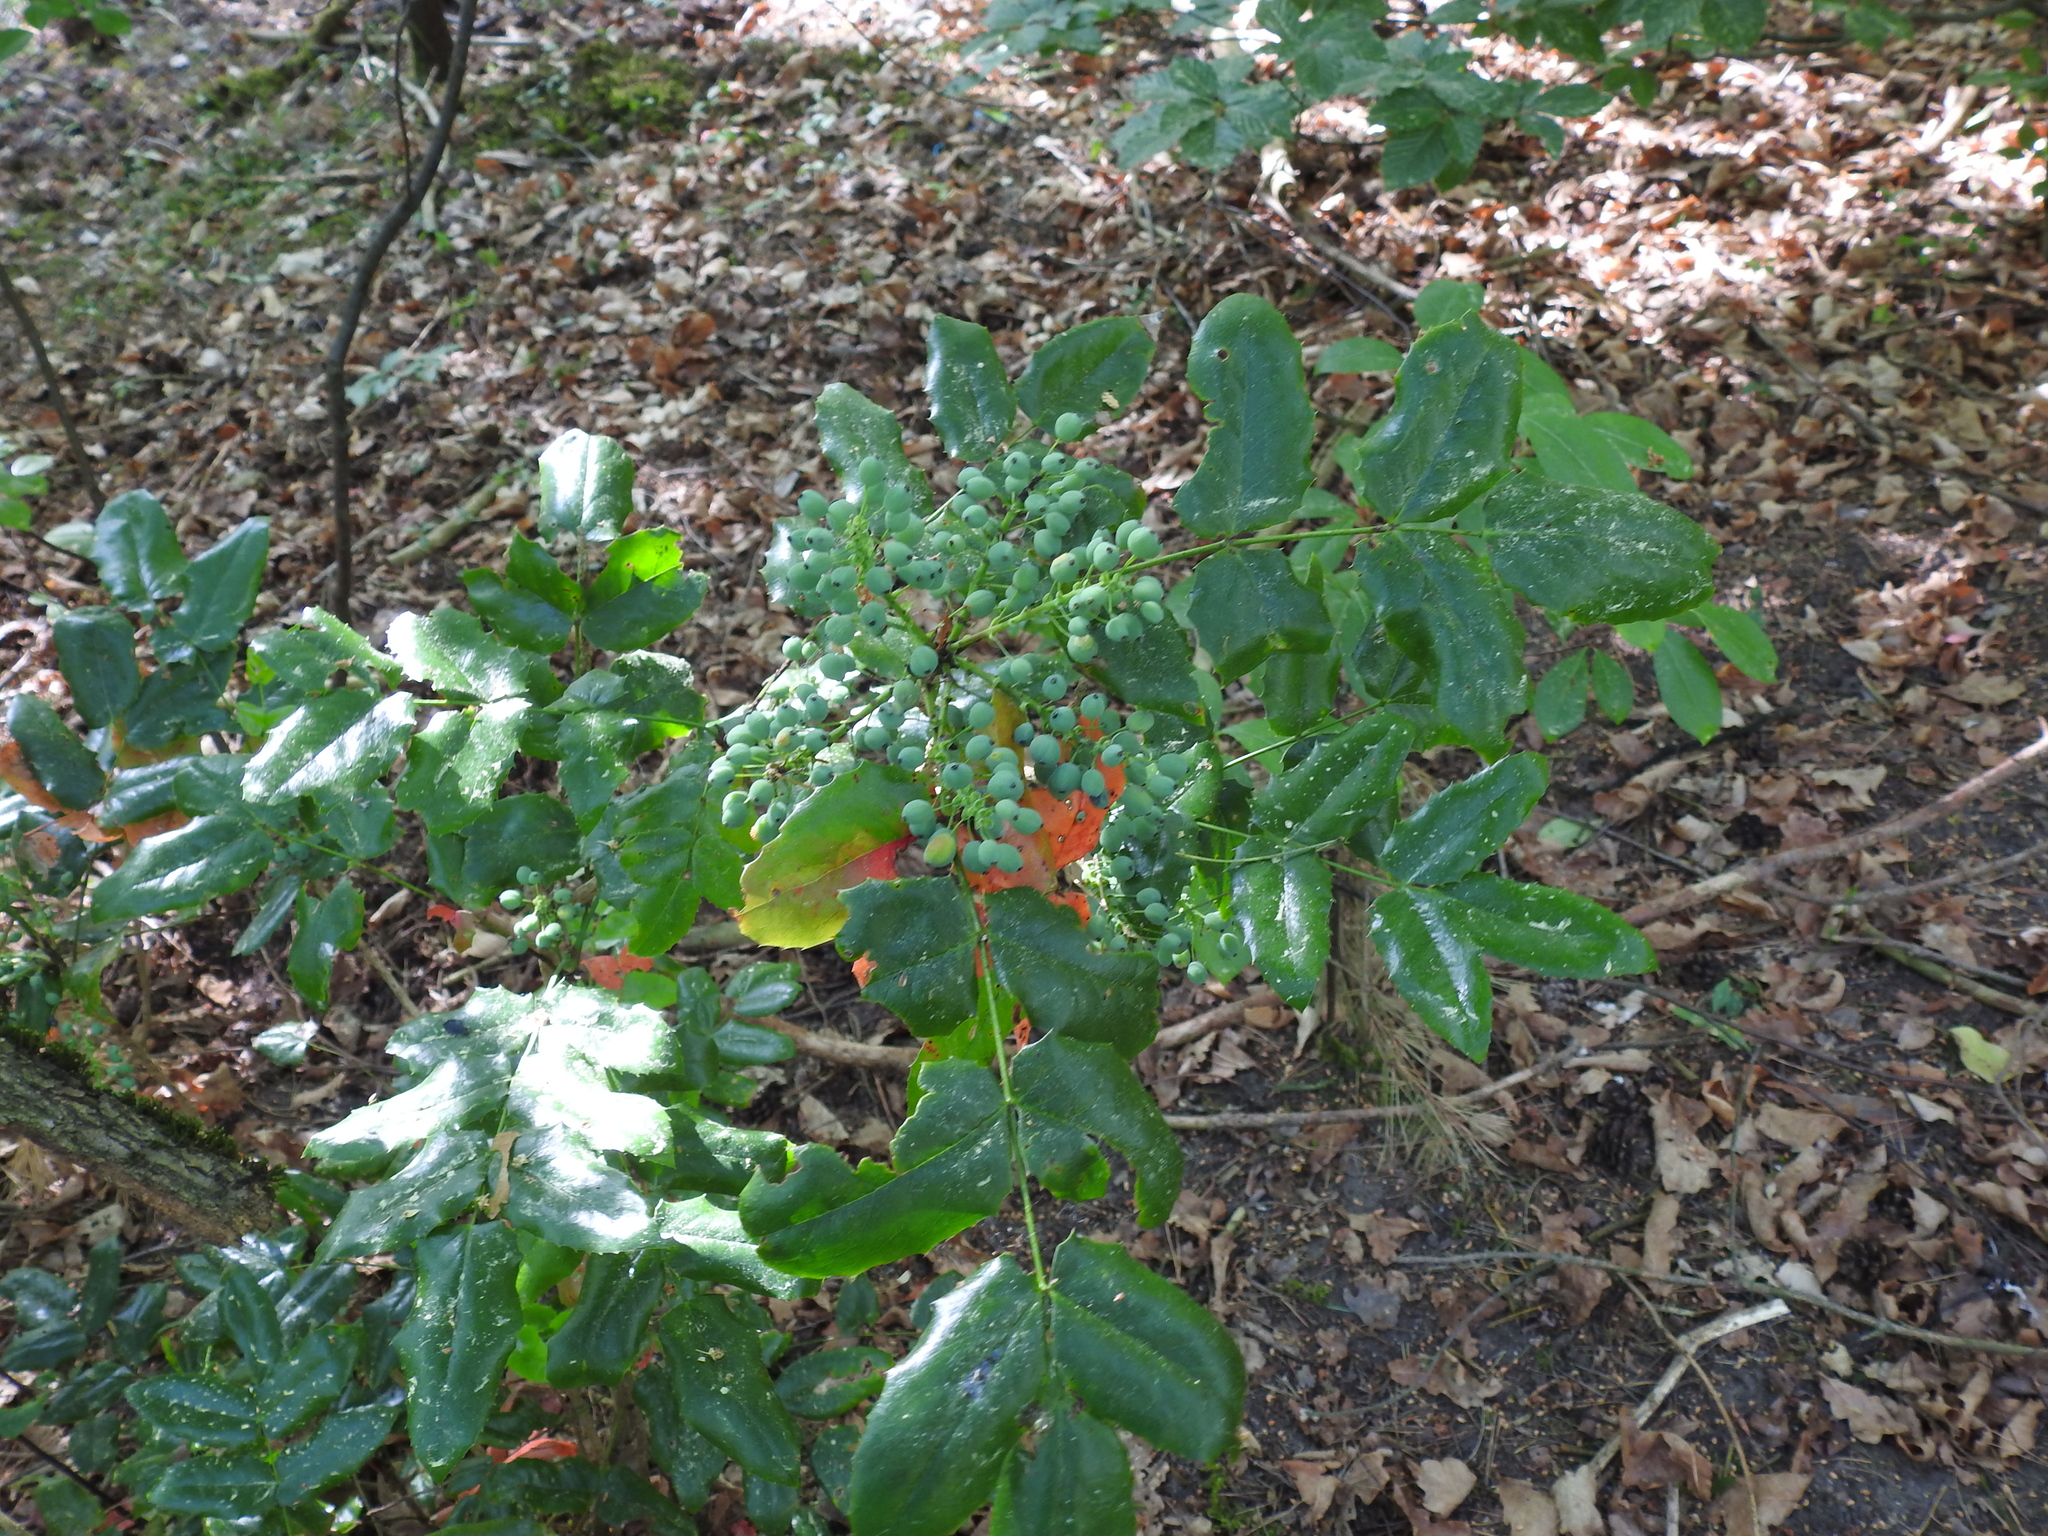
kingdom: Plantae
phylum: Tracheophyta
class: Magnoliopsida
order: Ranunculales
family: Berberidaceae
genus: Mahonia
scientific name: Mahonia aquifolium
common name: Oregon-grape
